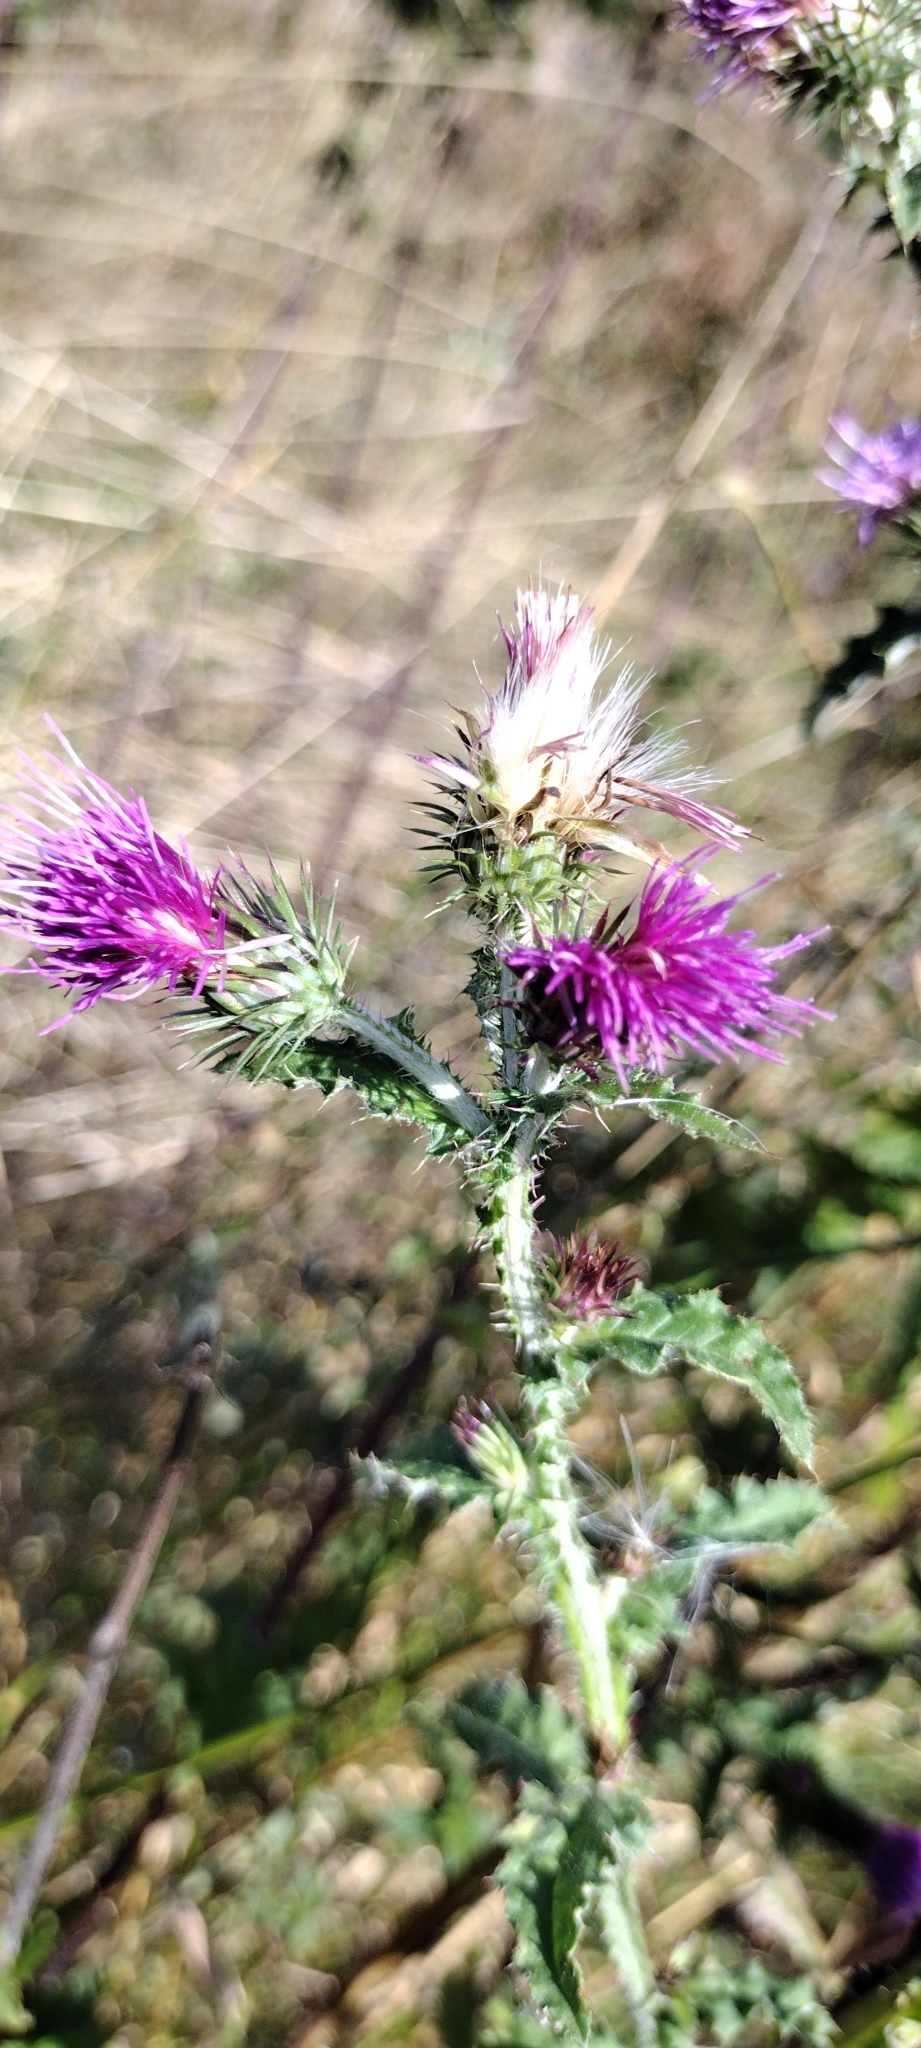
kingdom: Plantae
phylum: Tracheophyta
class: Magnoliopsida
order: Asterales
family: Asteraceae
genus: Carduus
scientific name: Carduus crispus
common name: Welted thistle
